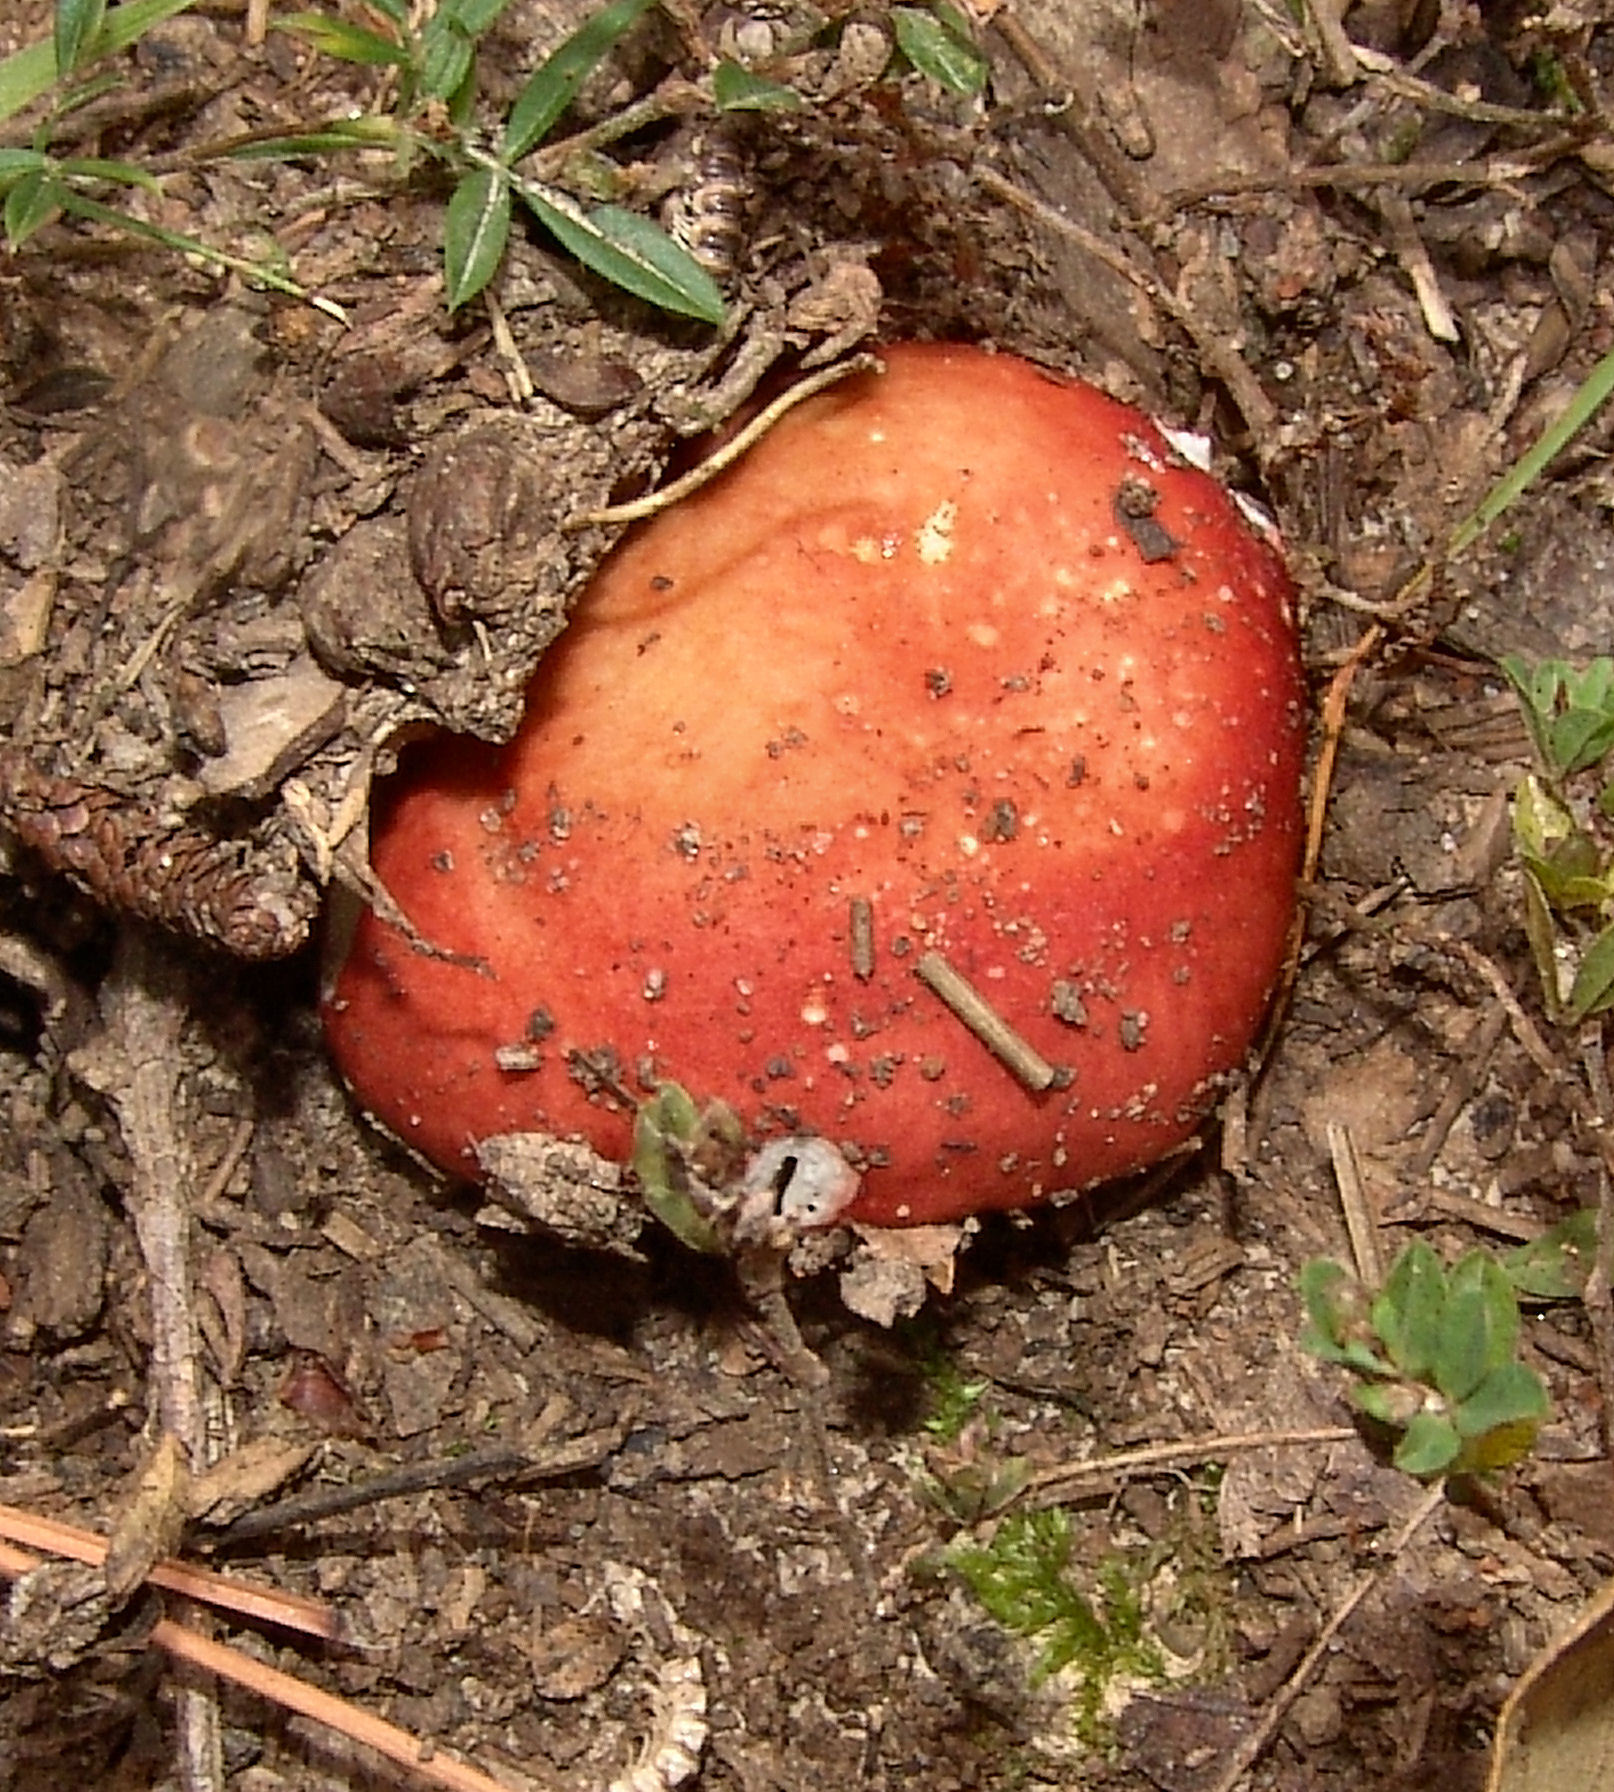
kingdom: Fungi
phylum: Basidiomycota
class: Agaricomycetes
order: Russulales
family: Russulaceae
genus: Russula
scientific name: Russula
